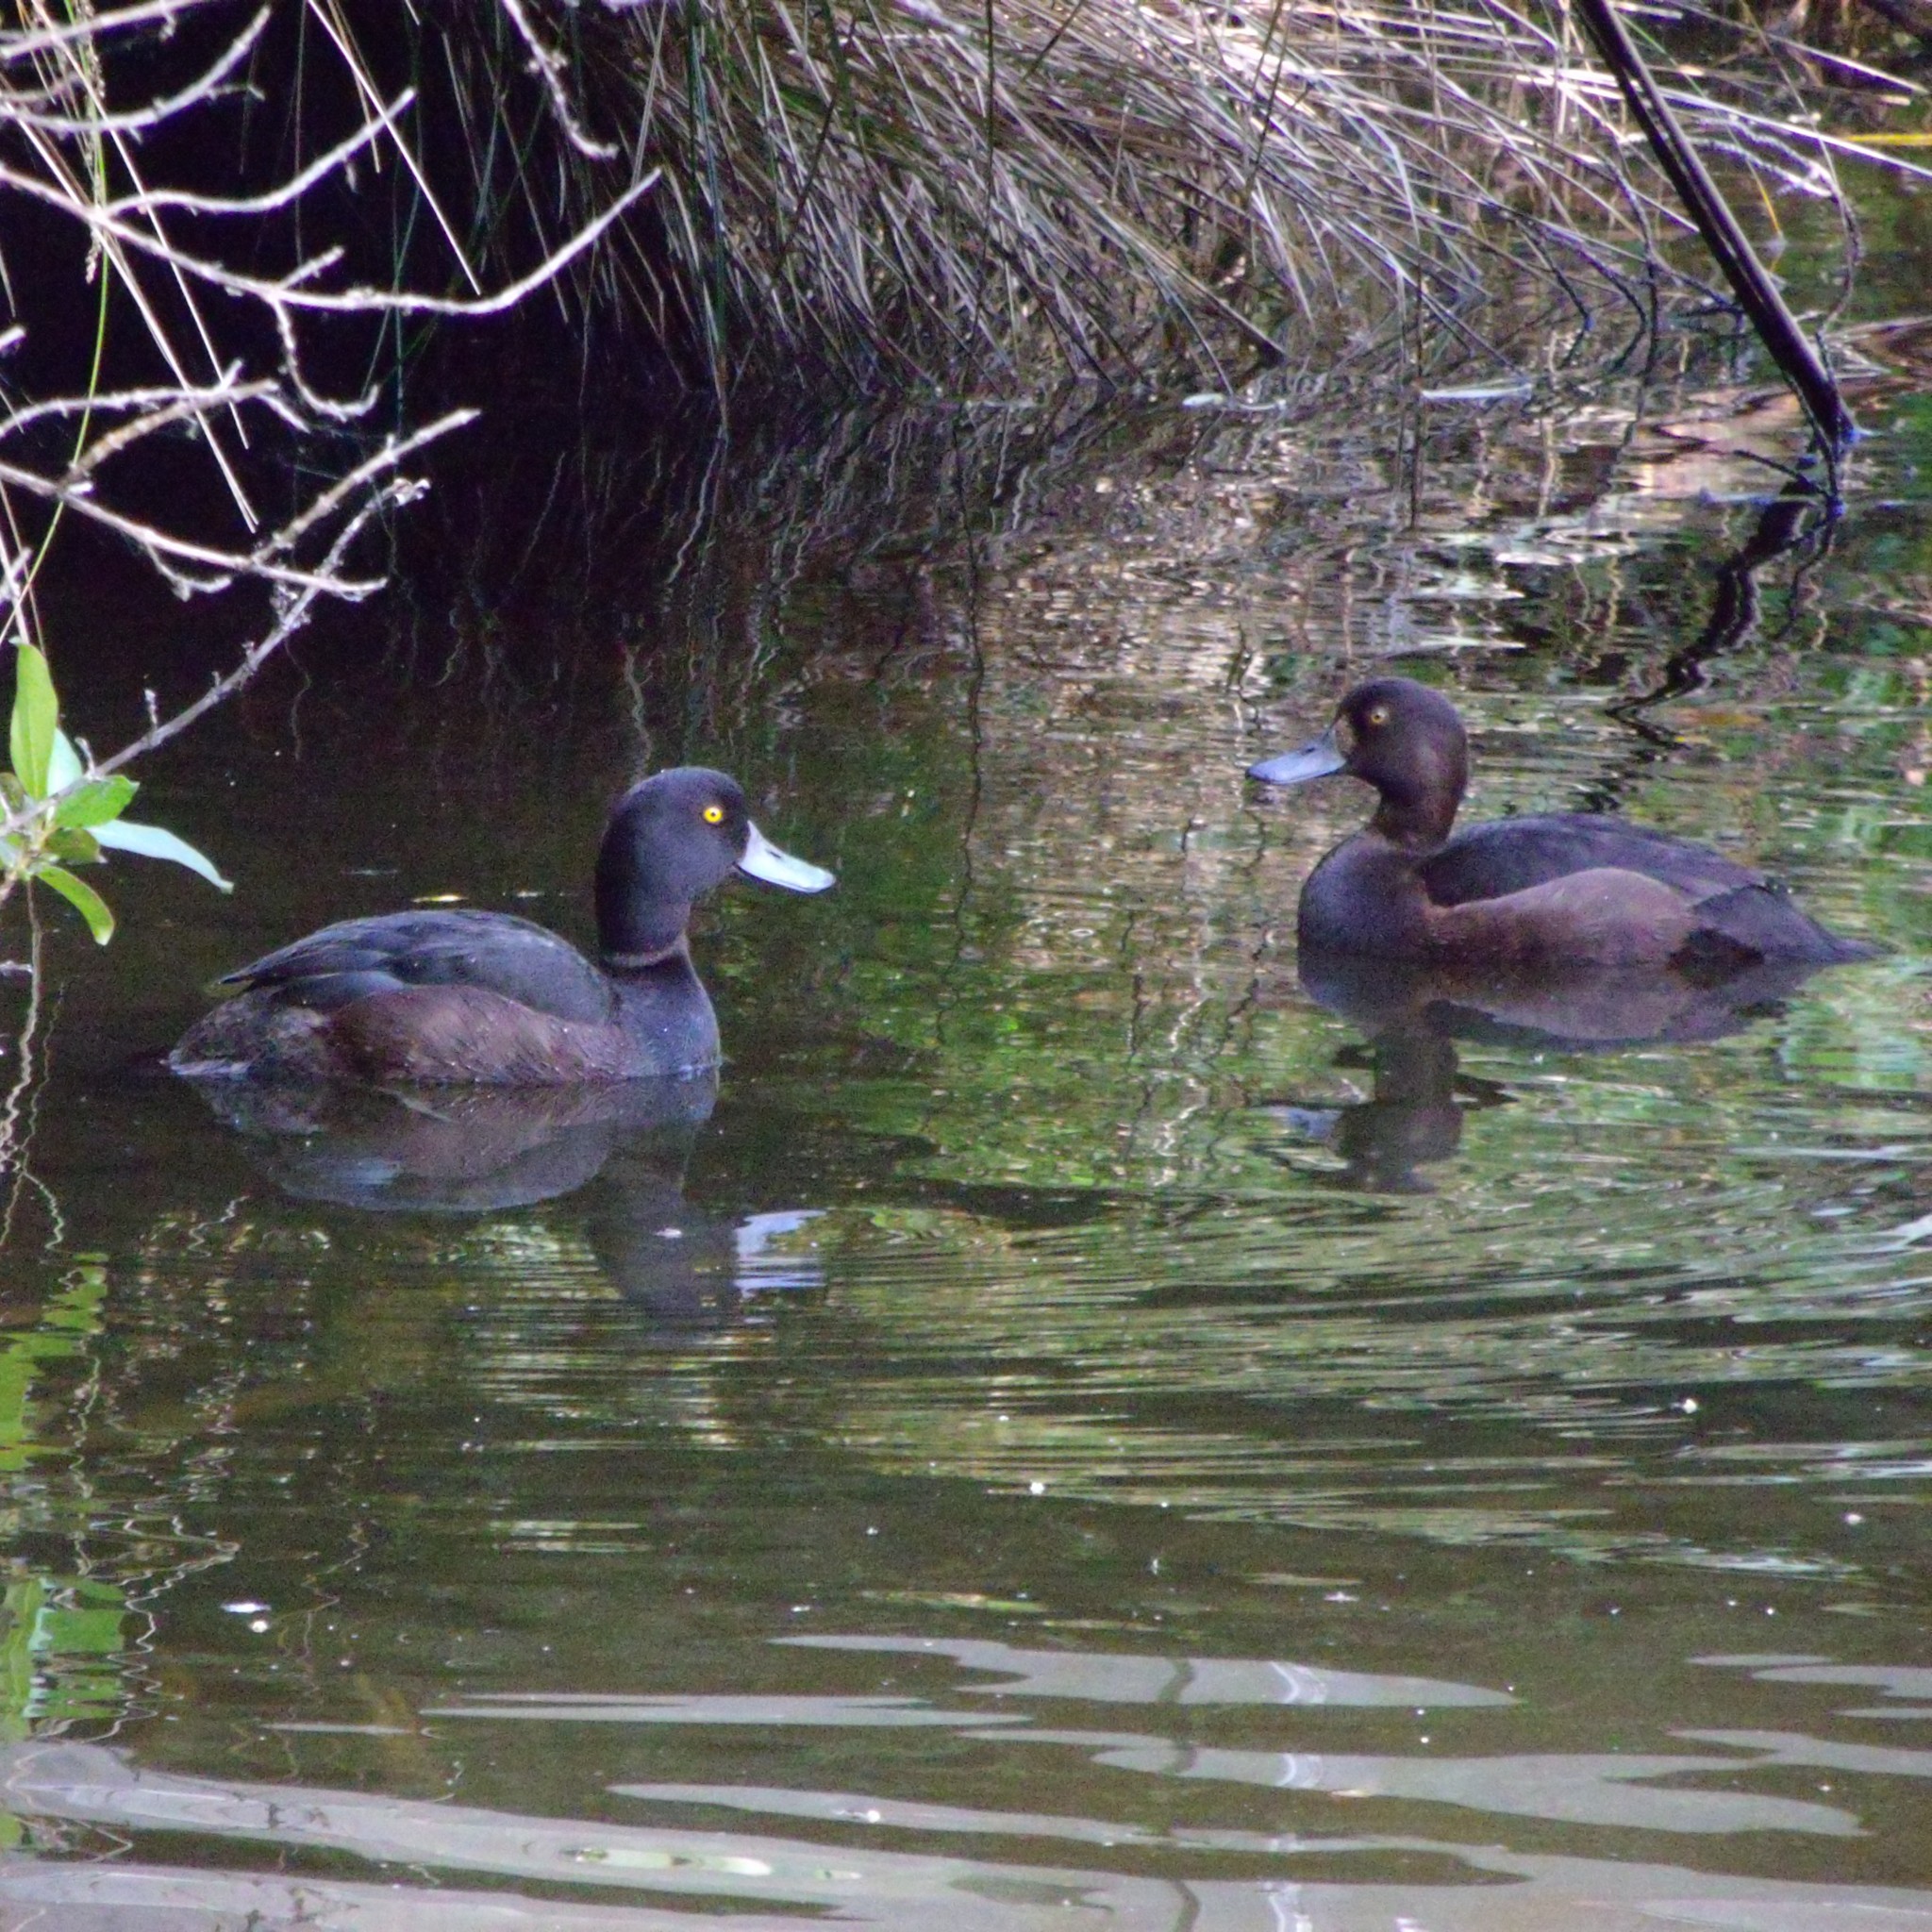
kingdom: Animalia
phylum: Chordata
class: Aves
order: Anseriformes
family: Anatidae
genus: Aythya
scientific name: Aythya novaeseelandiae
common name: New zealand scaup
